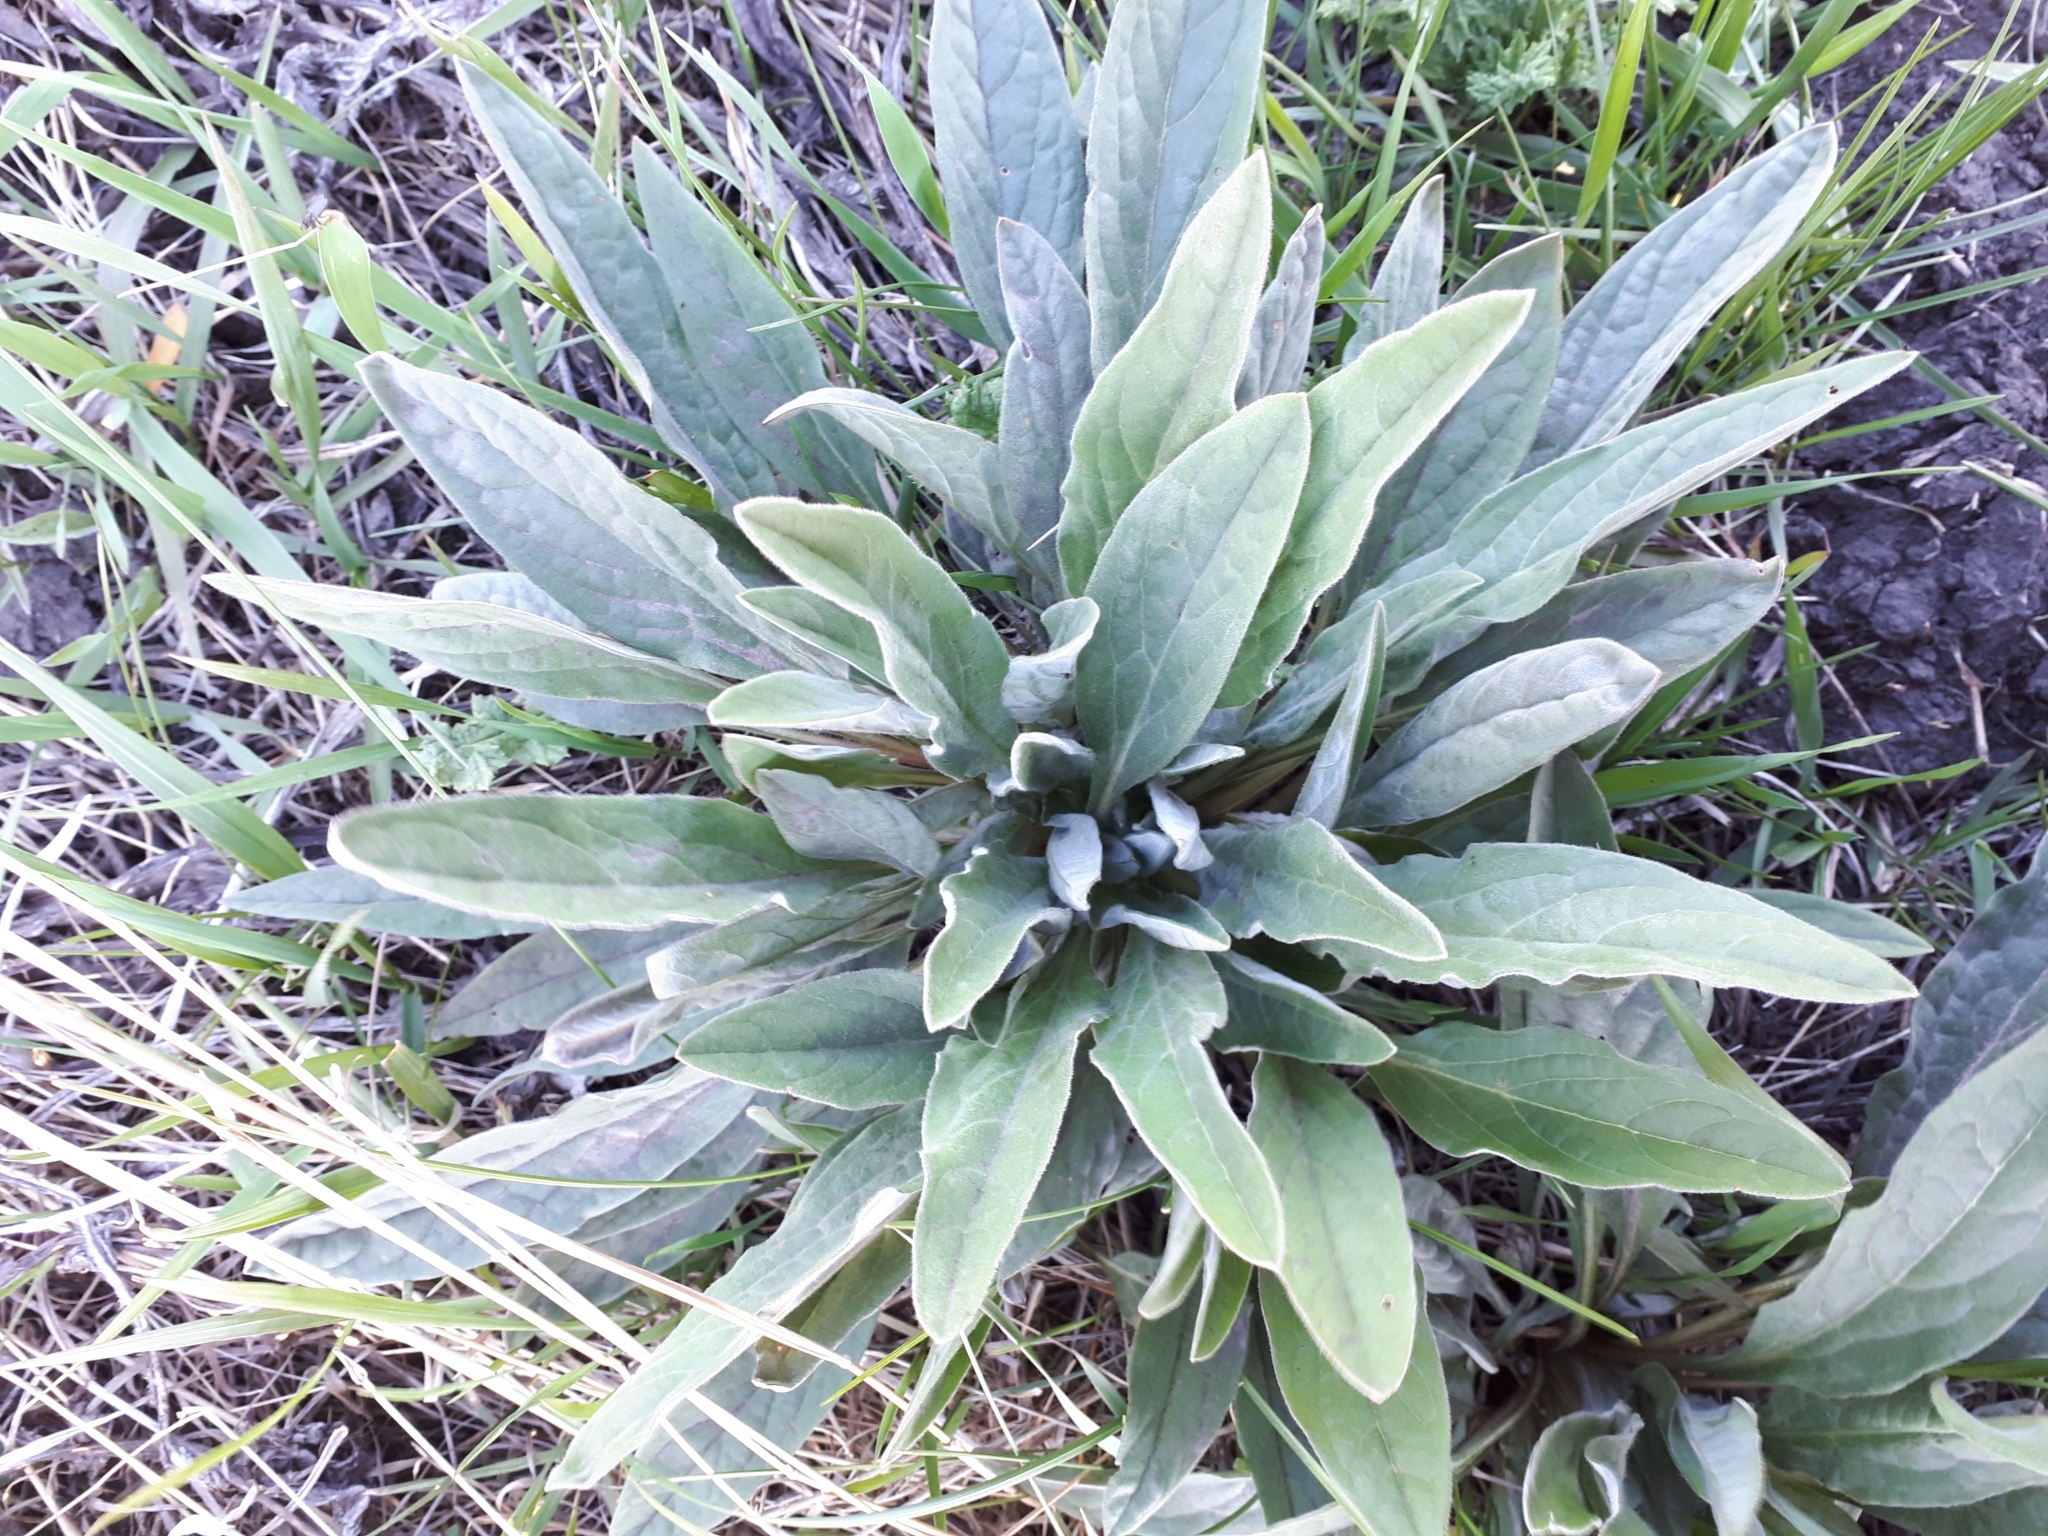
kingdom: Plantae
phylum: Tracheophyta
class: Magnoliopsida
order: Boraginales
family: Boraginaceae
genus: Cynoglossum
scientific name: Cynoglossum officinale
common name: Hound's-tongue
